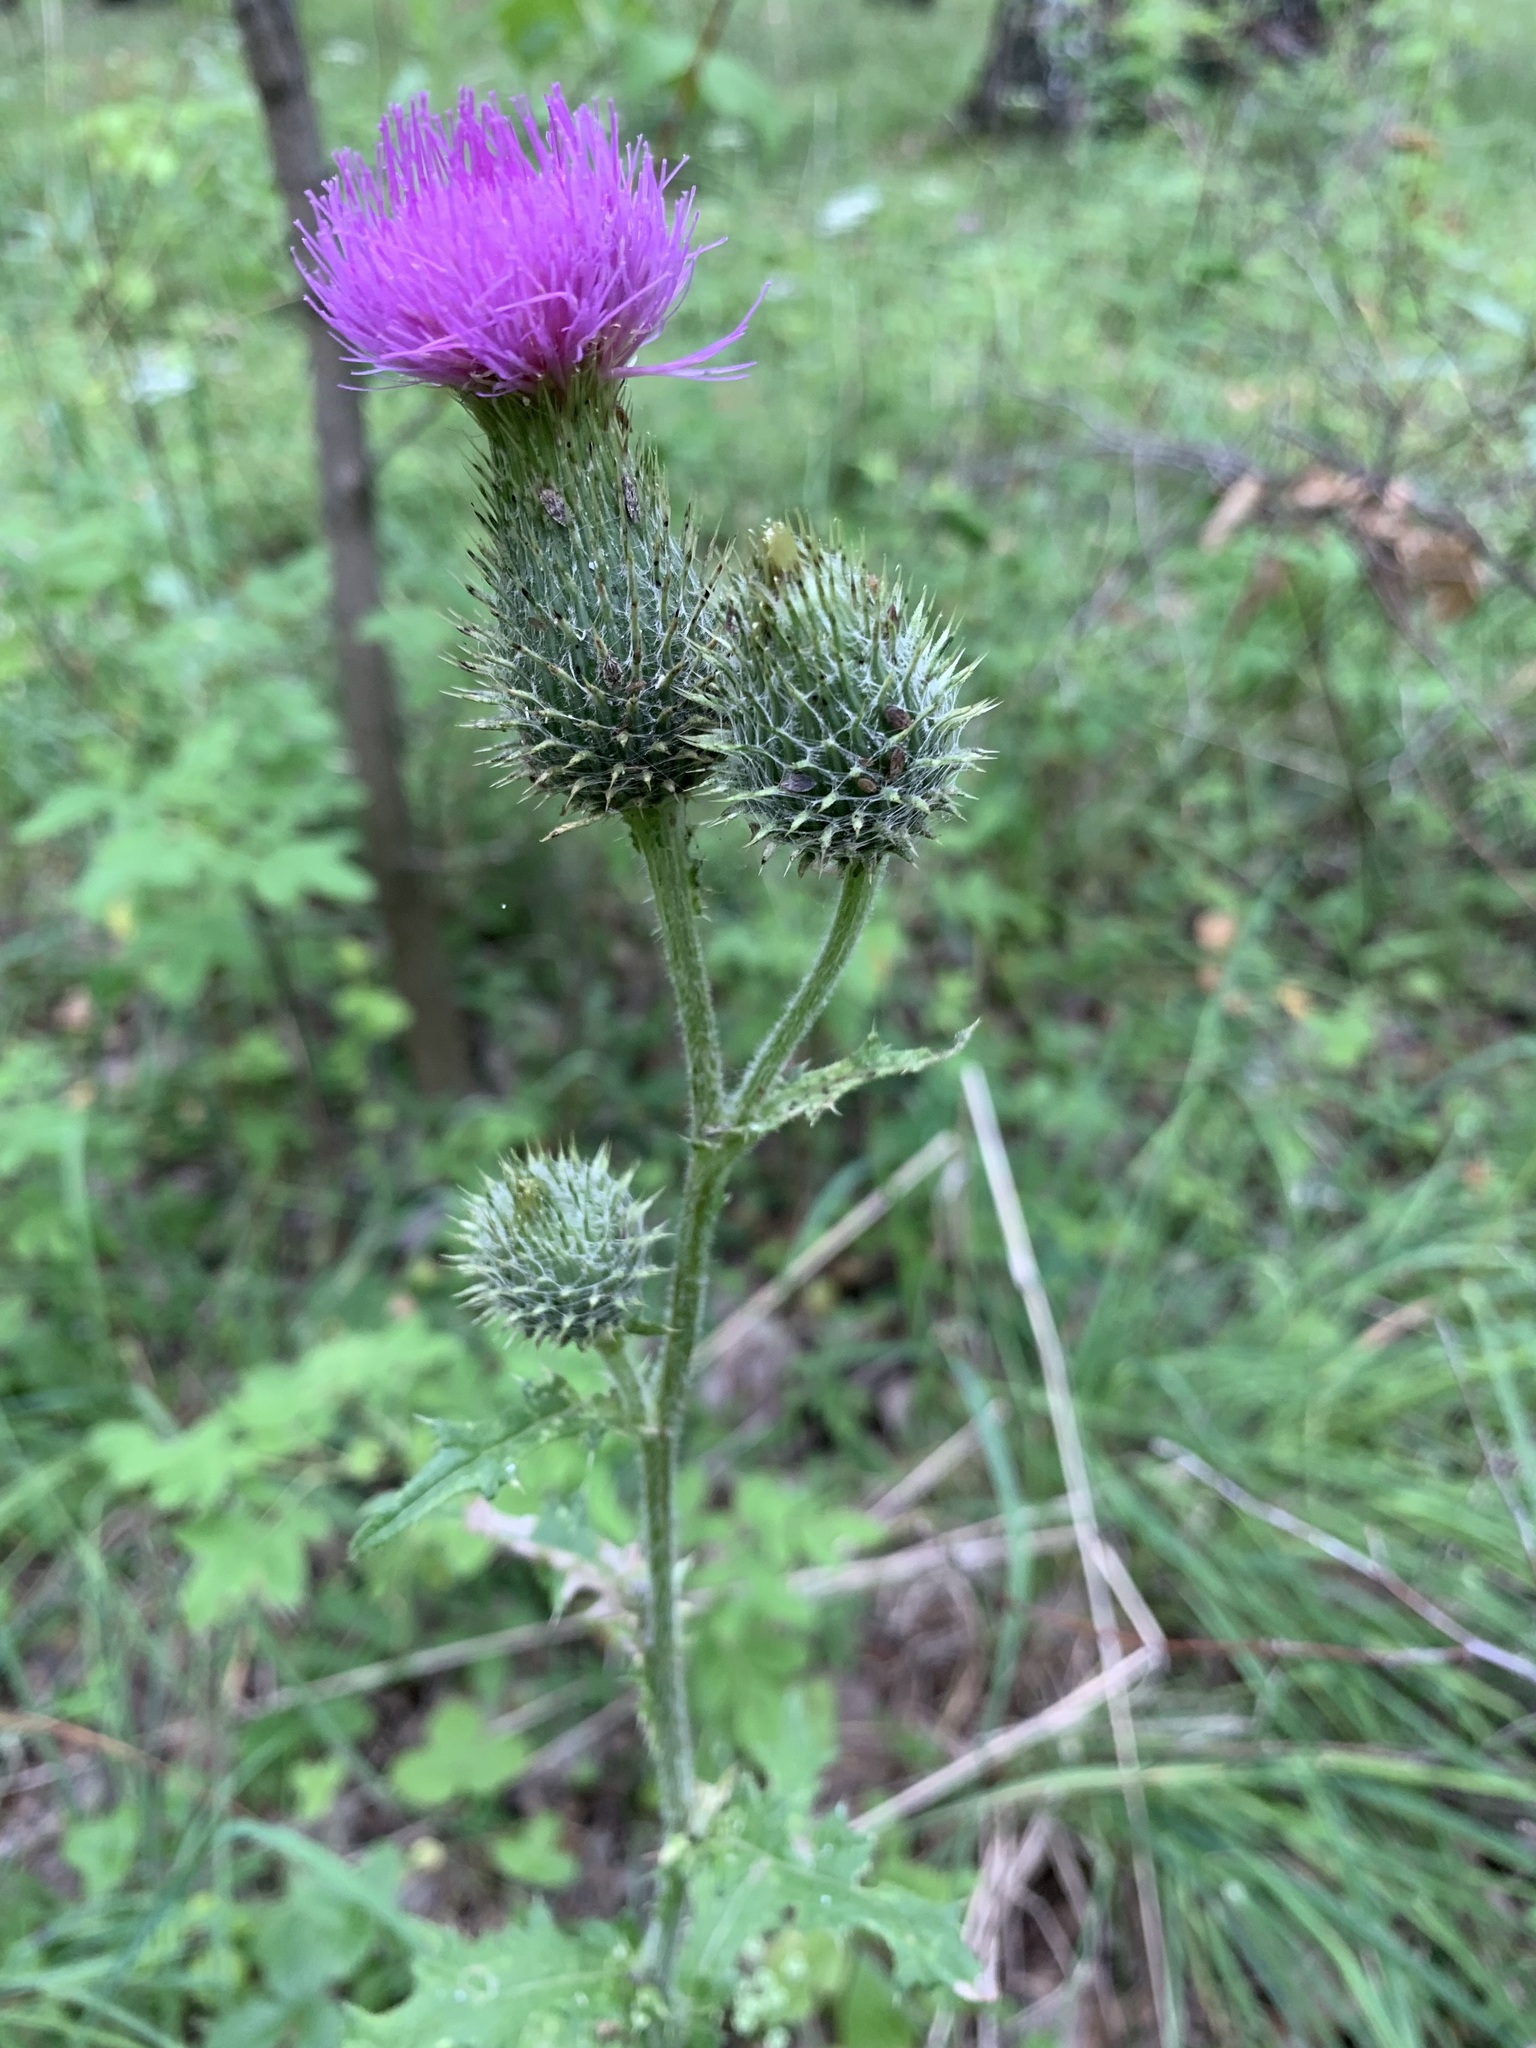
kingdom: Plantae
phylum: Tracheophyta
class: Magnoliopsida
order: Asterales
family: Asteraceae
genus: Cirsium
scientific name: Cirsium vulgare
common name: Bull thistle
